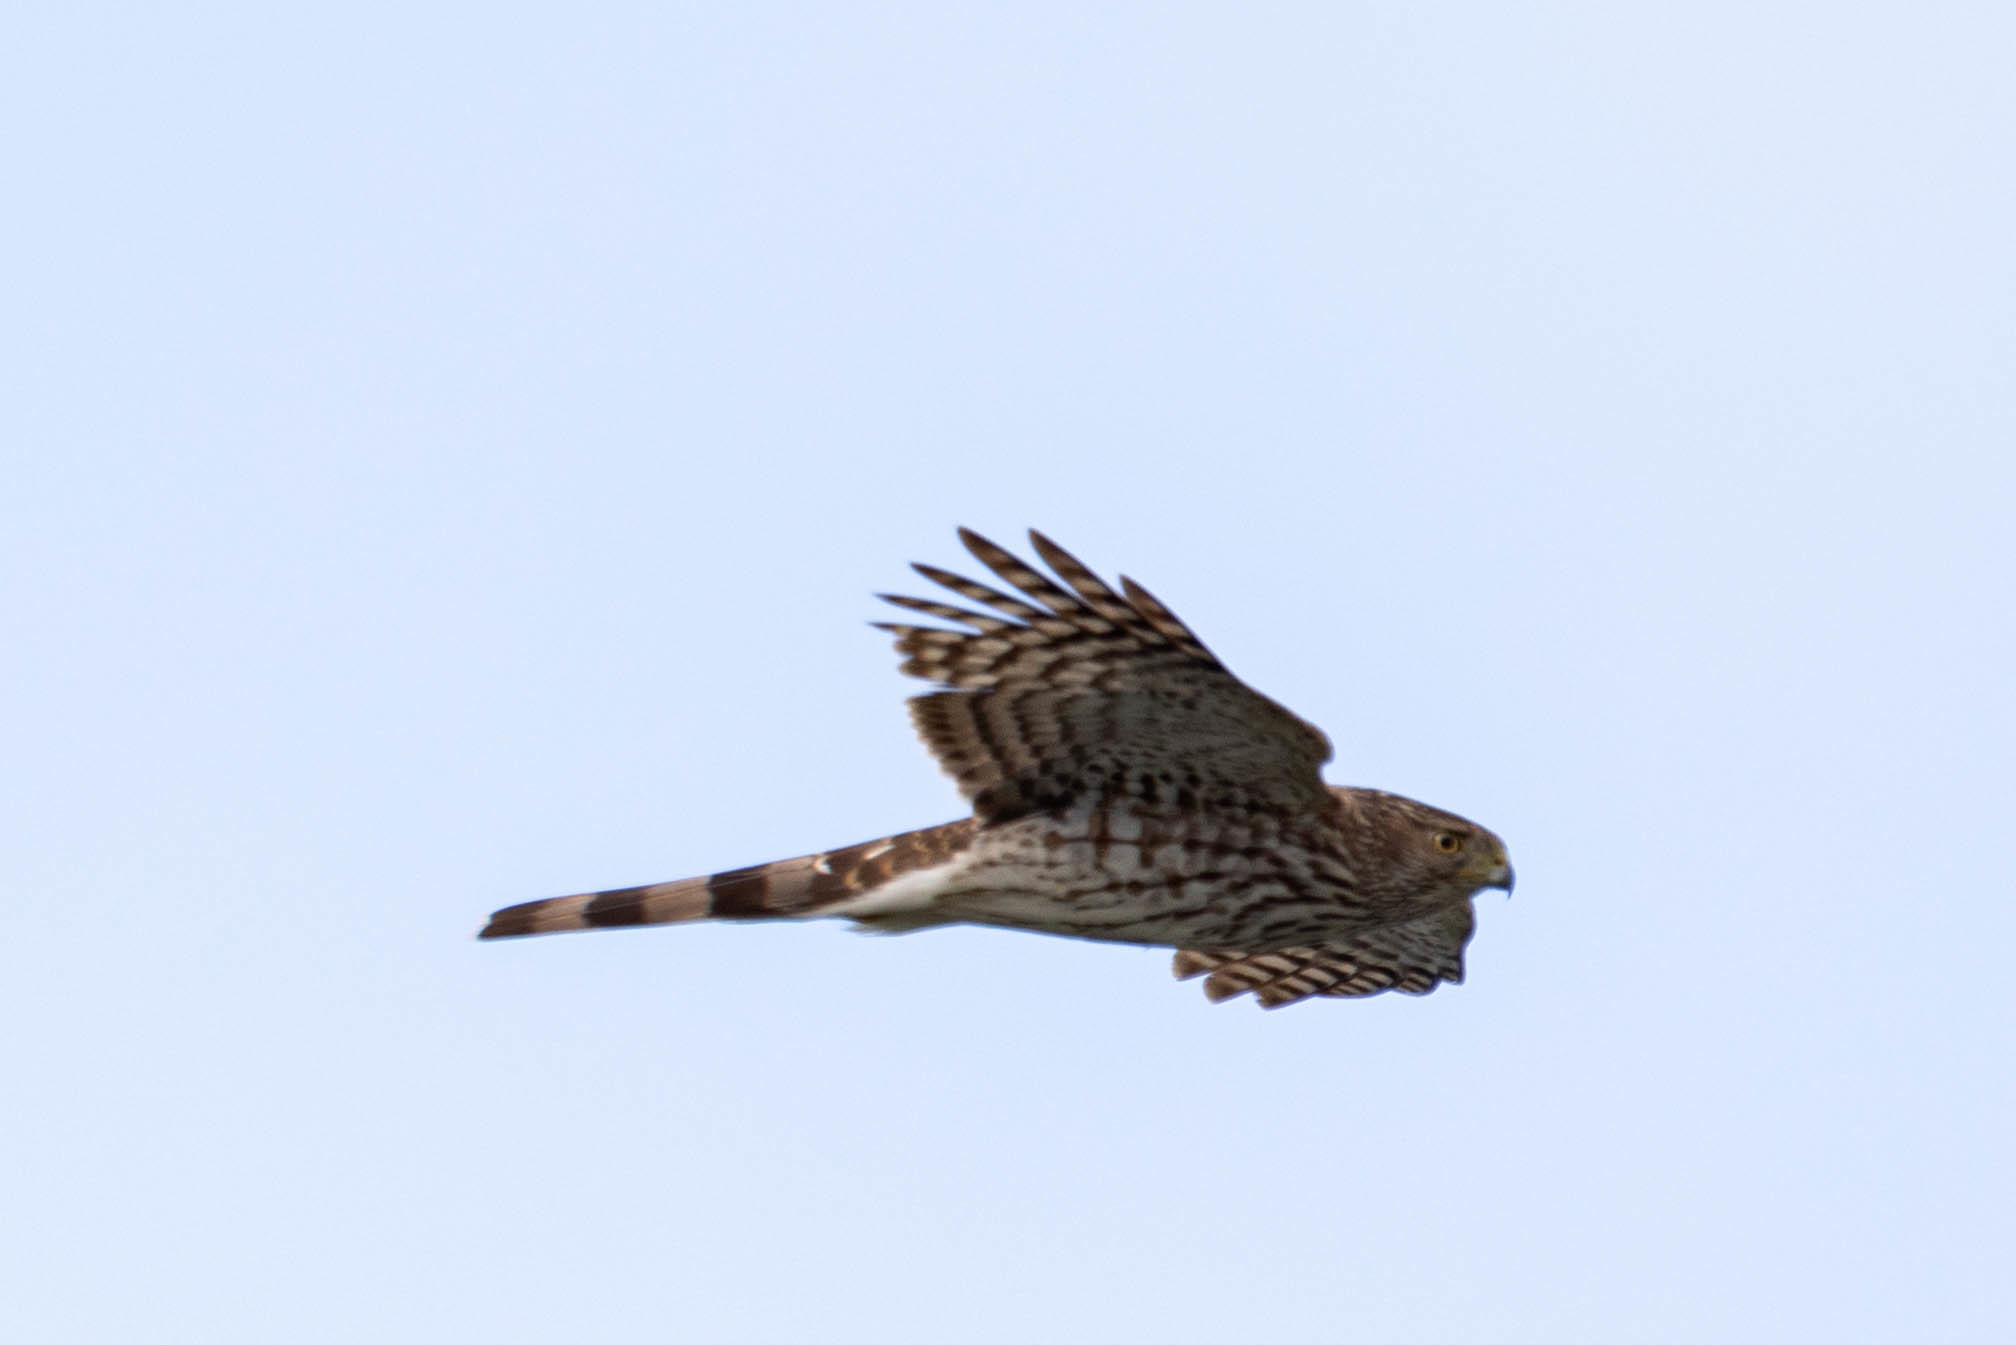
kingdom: Animalia
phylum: Chordata
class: Aves
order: Accipitriformes
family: Accipitridae
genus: Accipiter
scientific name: Accipiter cooperii
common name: Cooper's hawk
